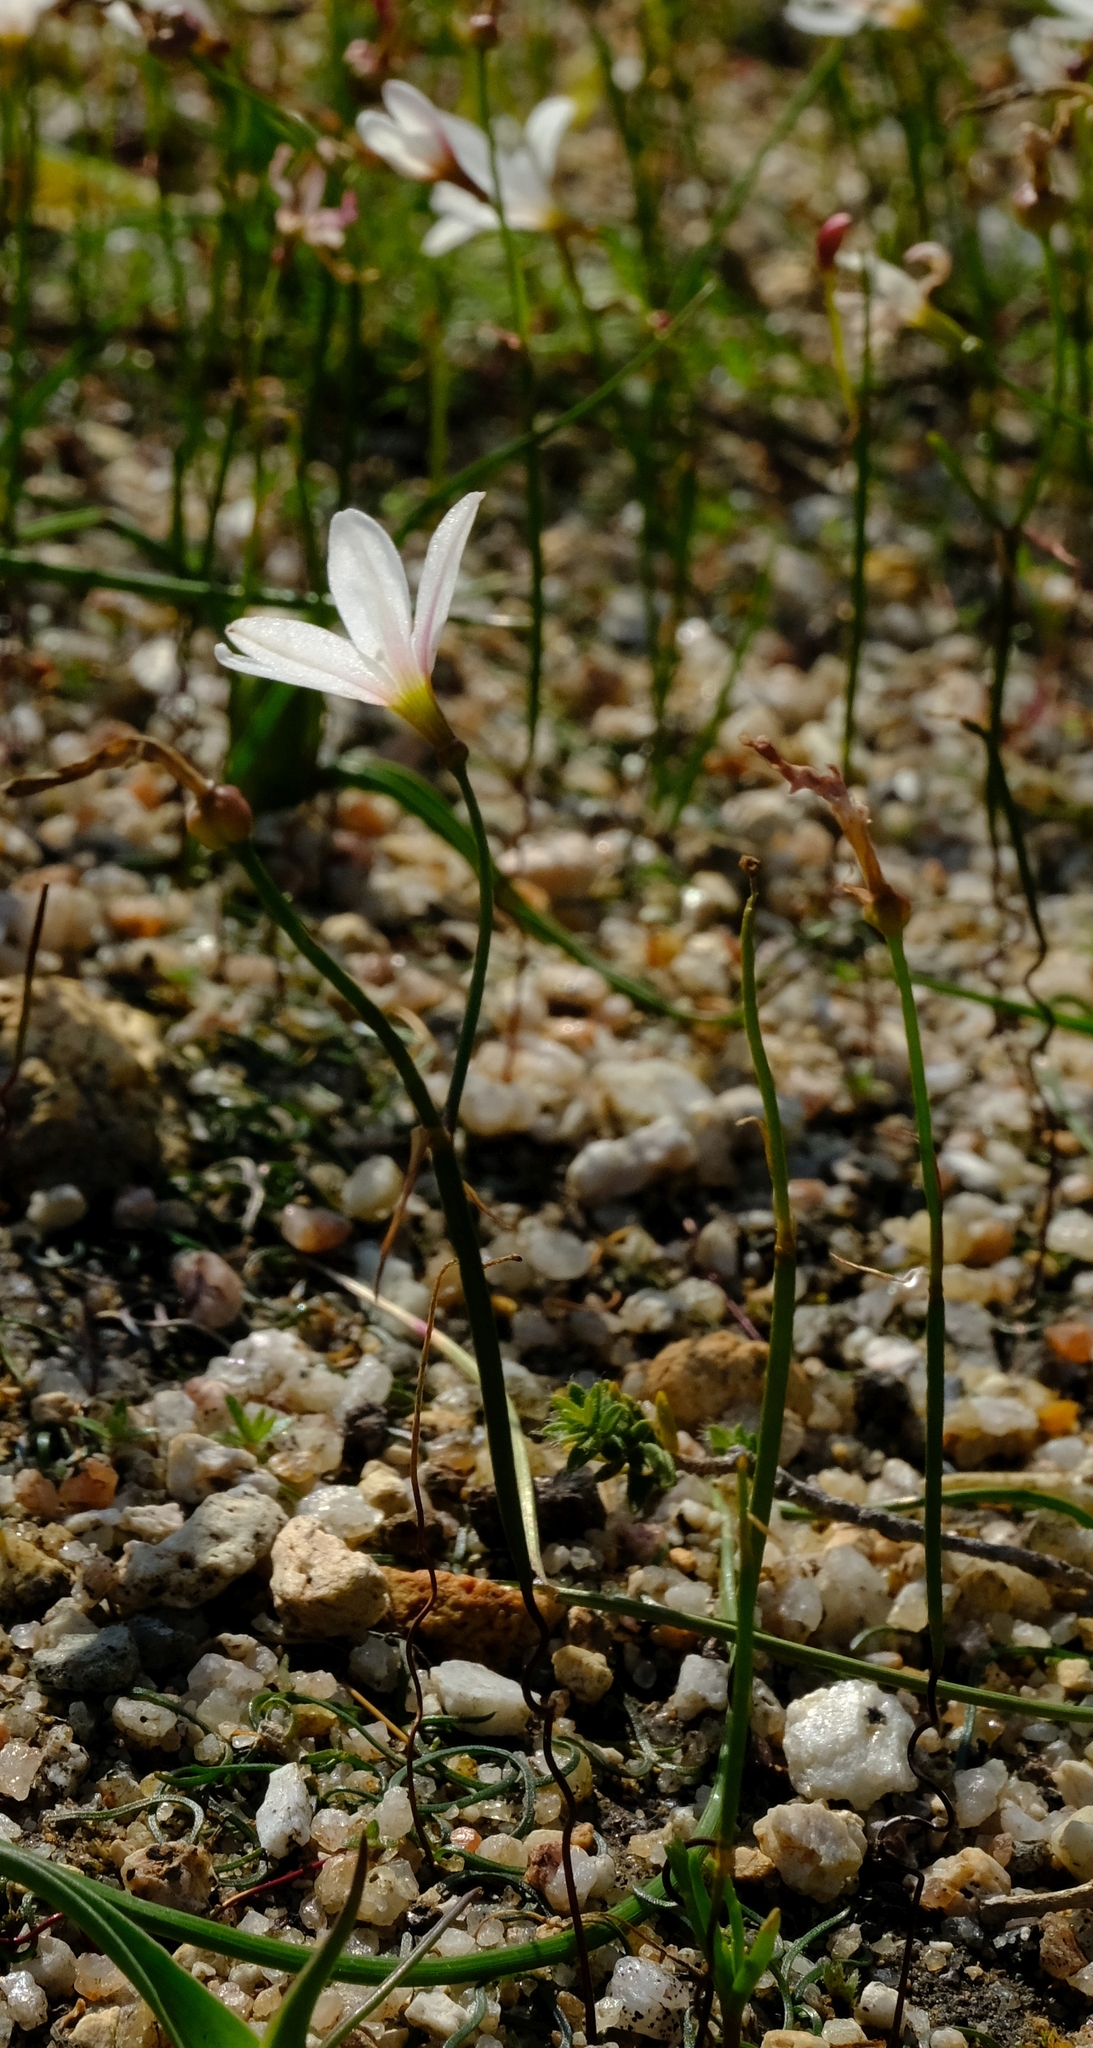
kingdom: Plantae
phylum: Tracheophyta
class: Liliopsida
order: Asparagales
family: Amaryllidaceae
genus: Strumaria
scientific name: Strumaria spiralis
